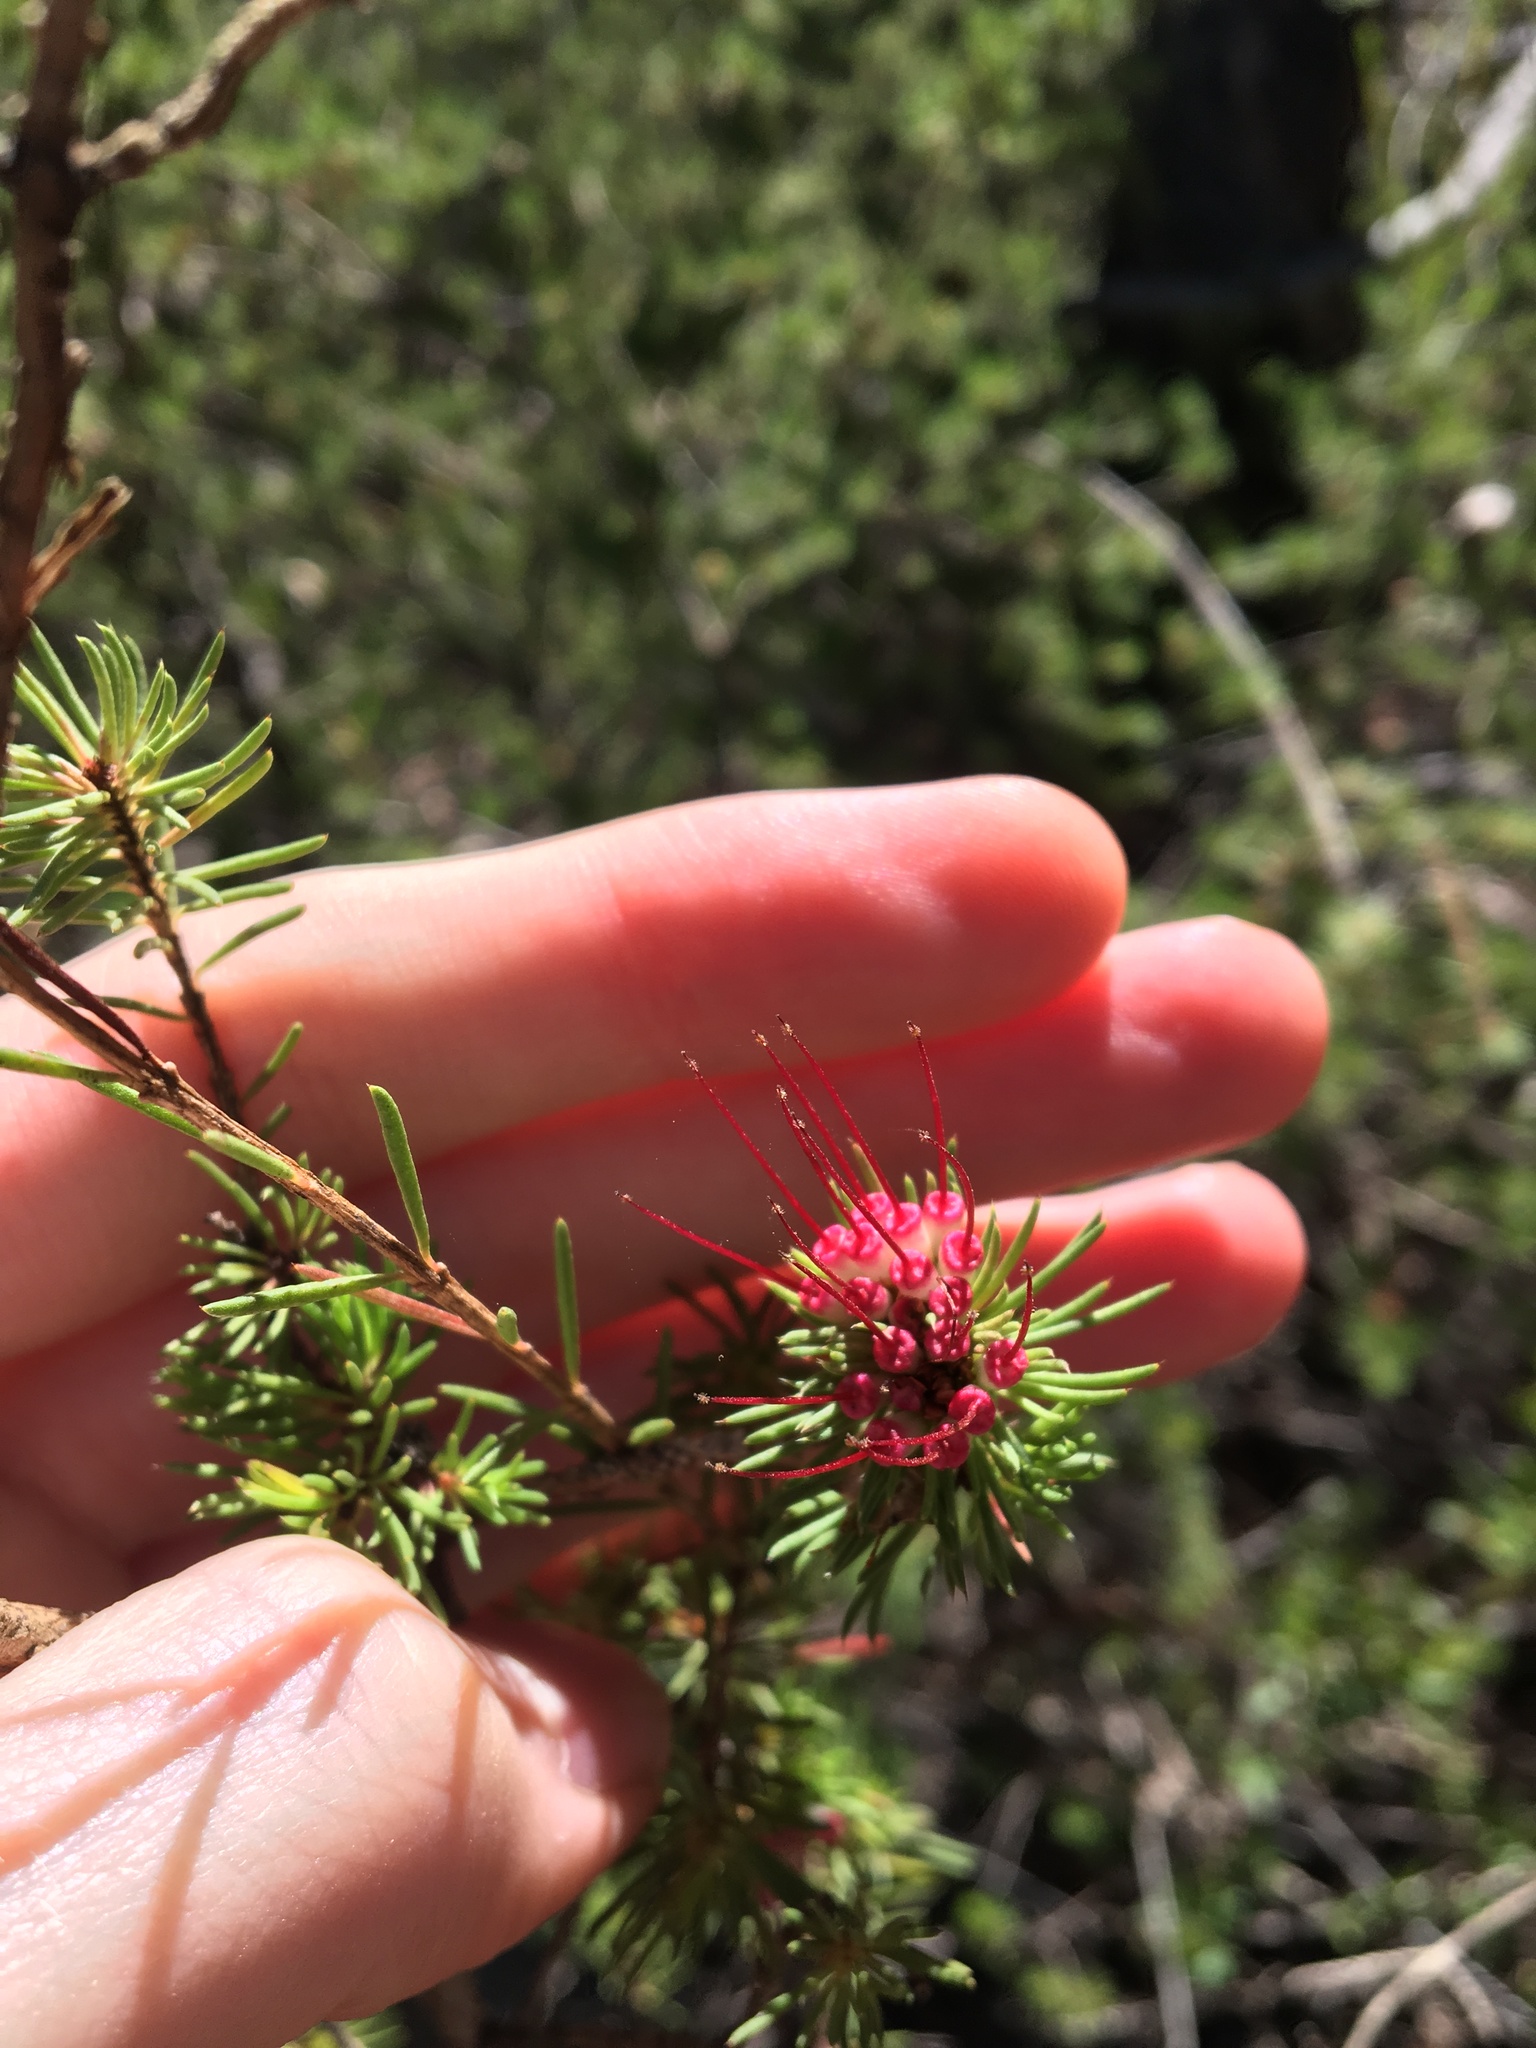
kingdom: Plantae
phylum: Tracheophyta
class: Magnoliopsida
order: Myrtales
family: Myrtaceae
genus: Darwinia
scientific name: Darwinia fascicularis
